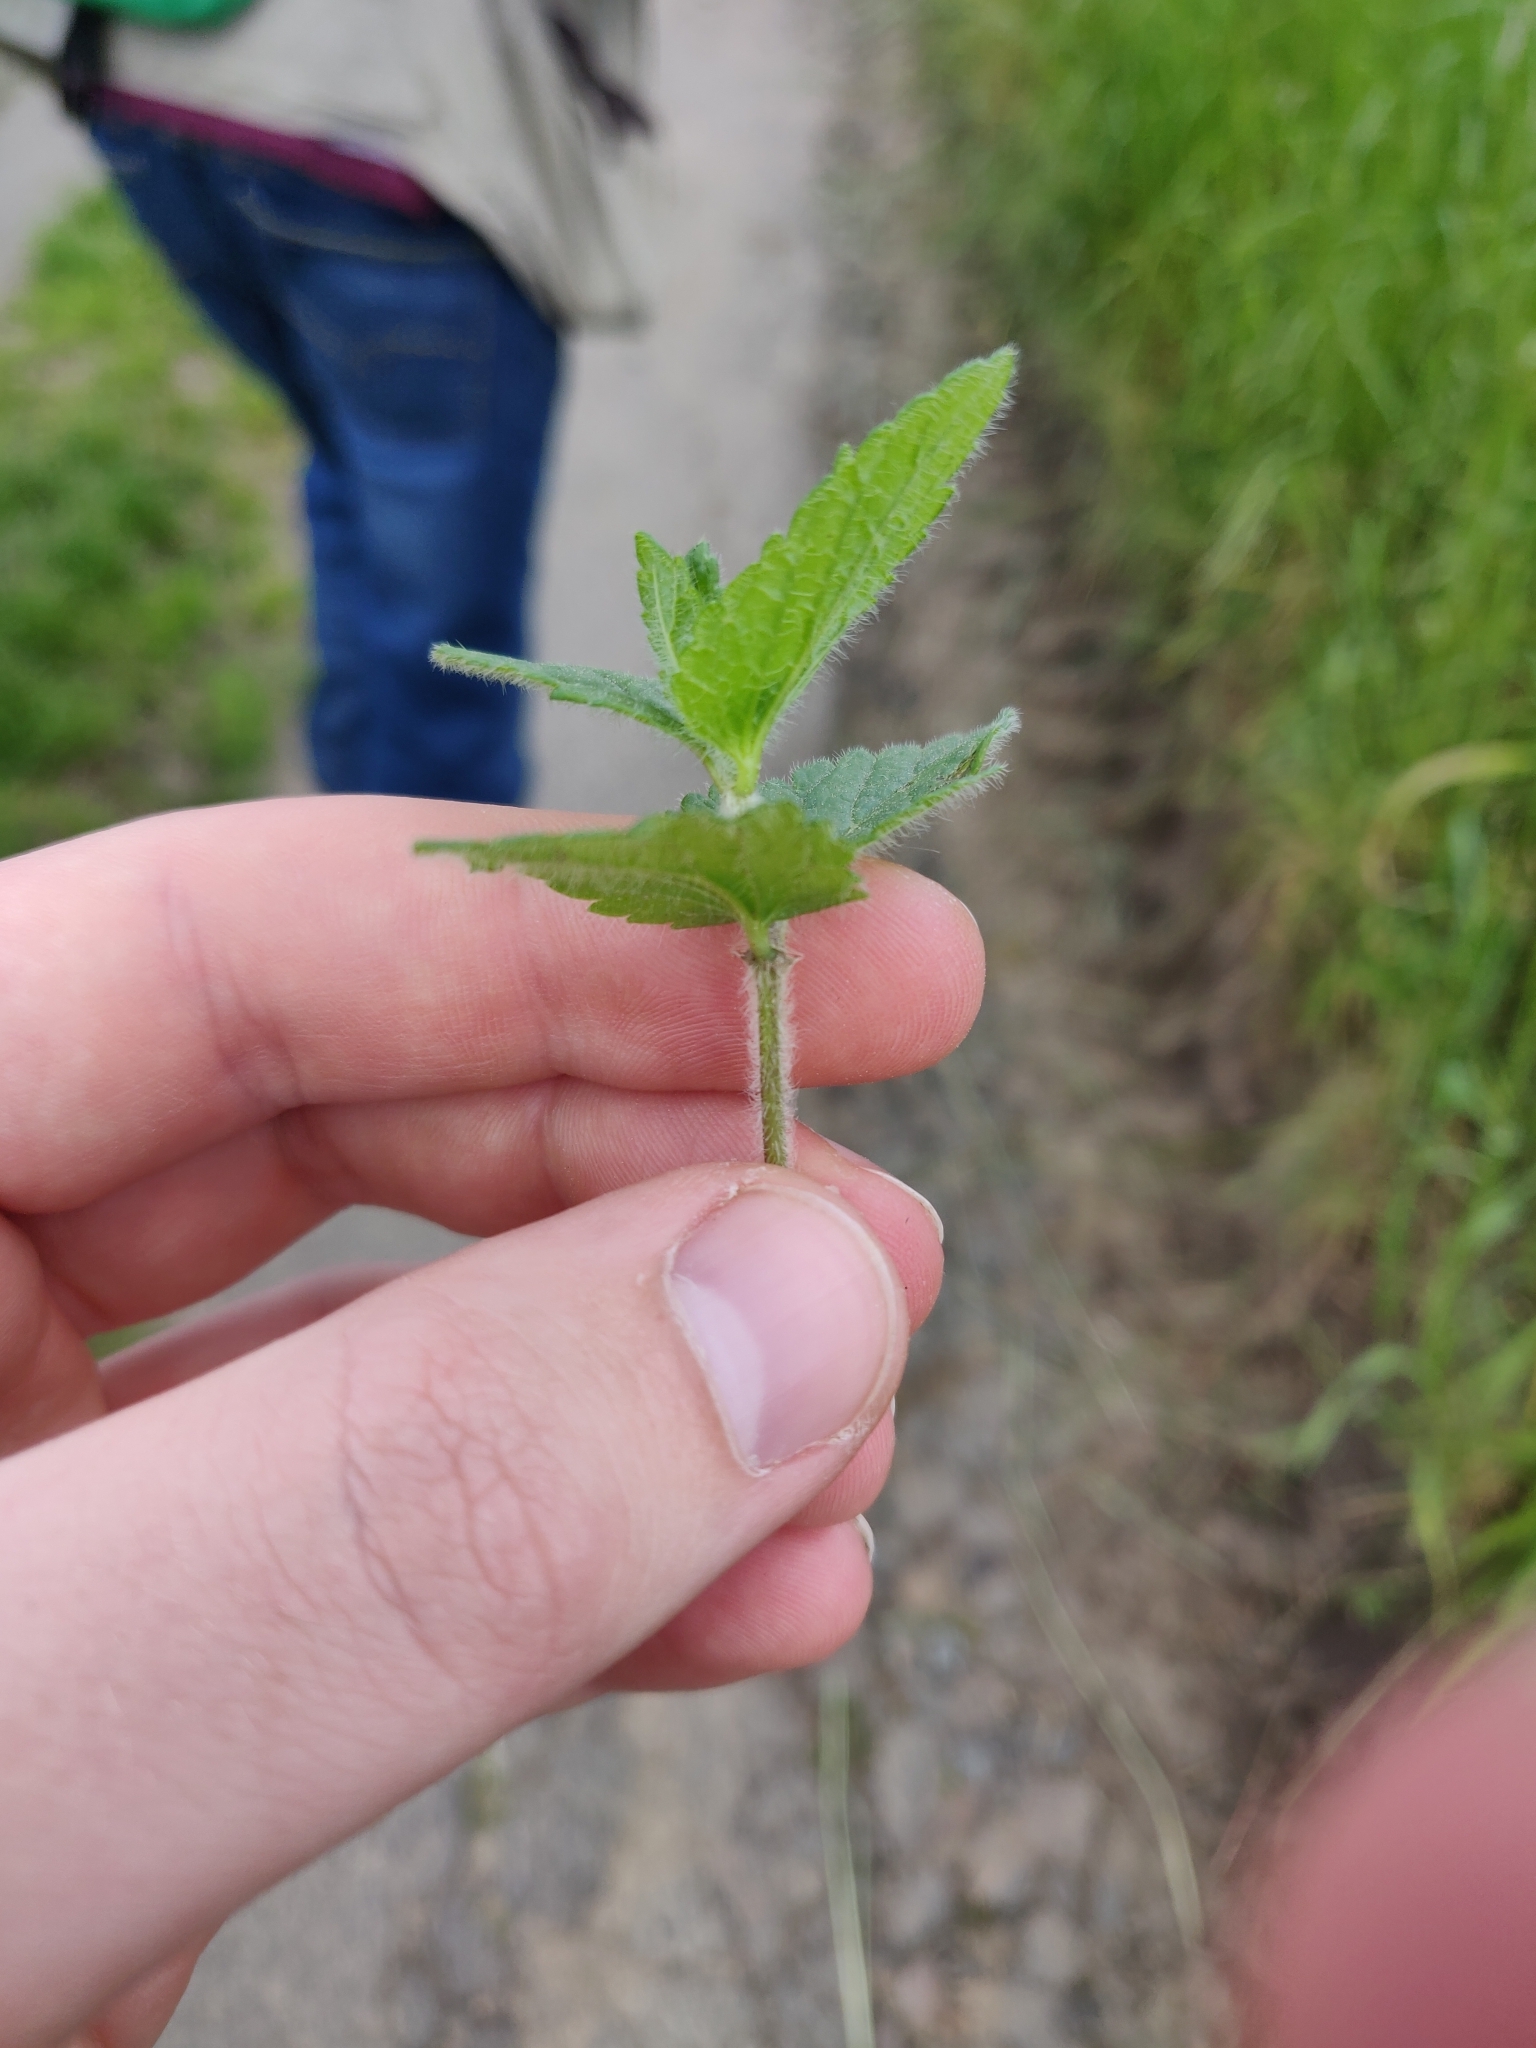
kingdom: Plantae
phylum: Tracheophyta
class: Magnoliopsida
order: Lamiales
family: Plantaginaceae
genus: Veronica
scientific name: Veronica chamaedrys
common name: Germander speedwell
